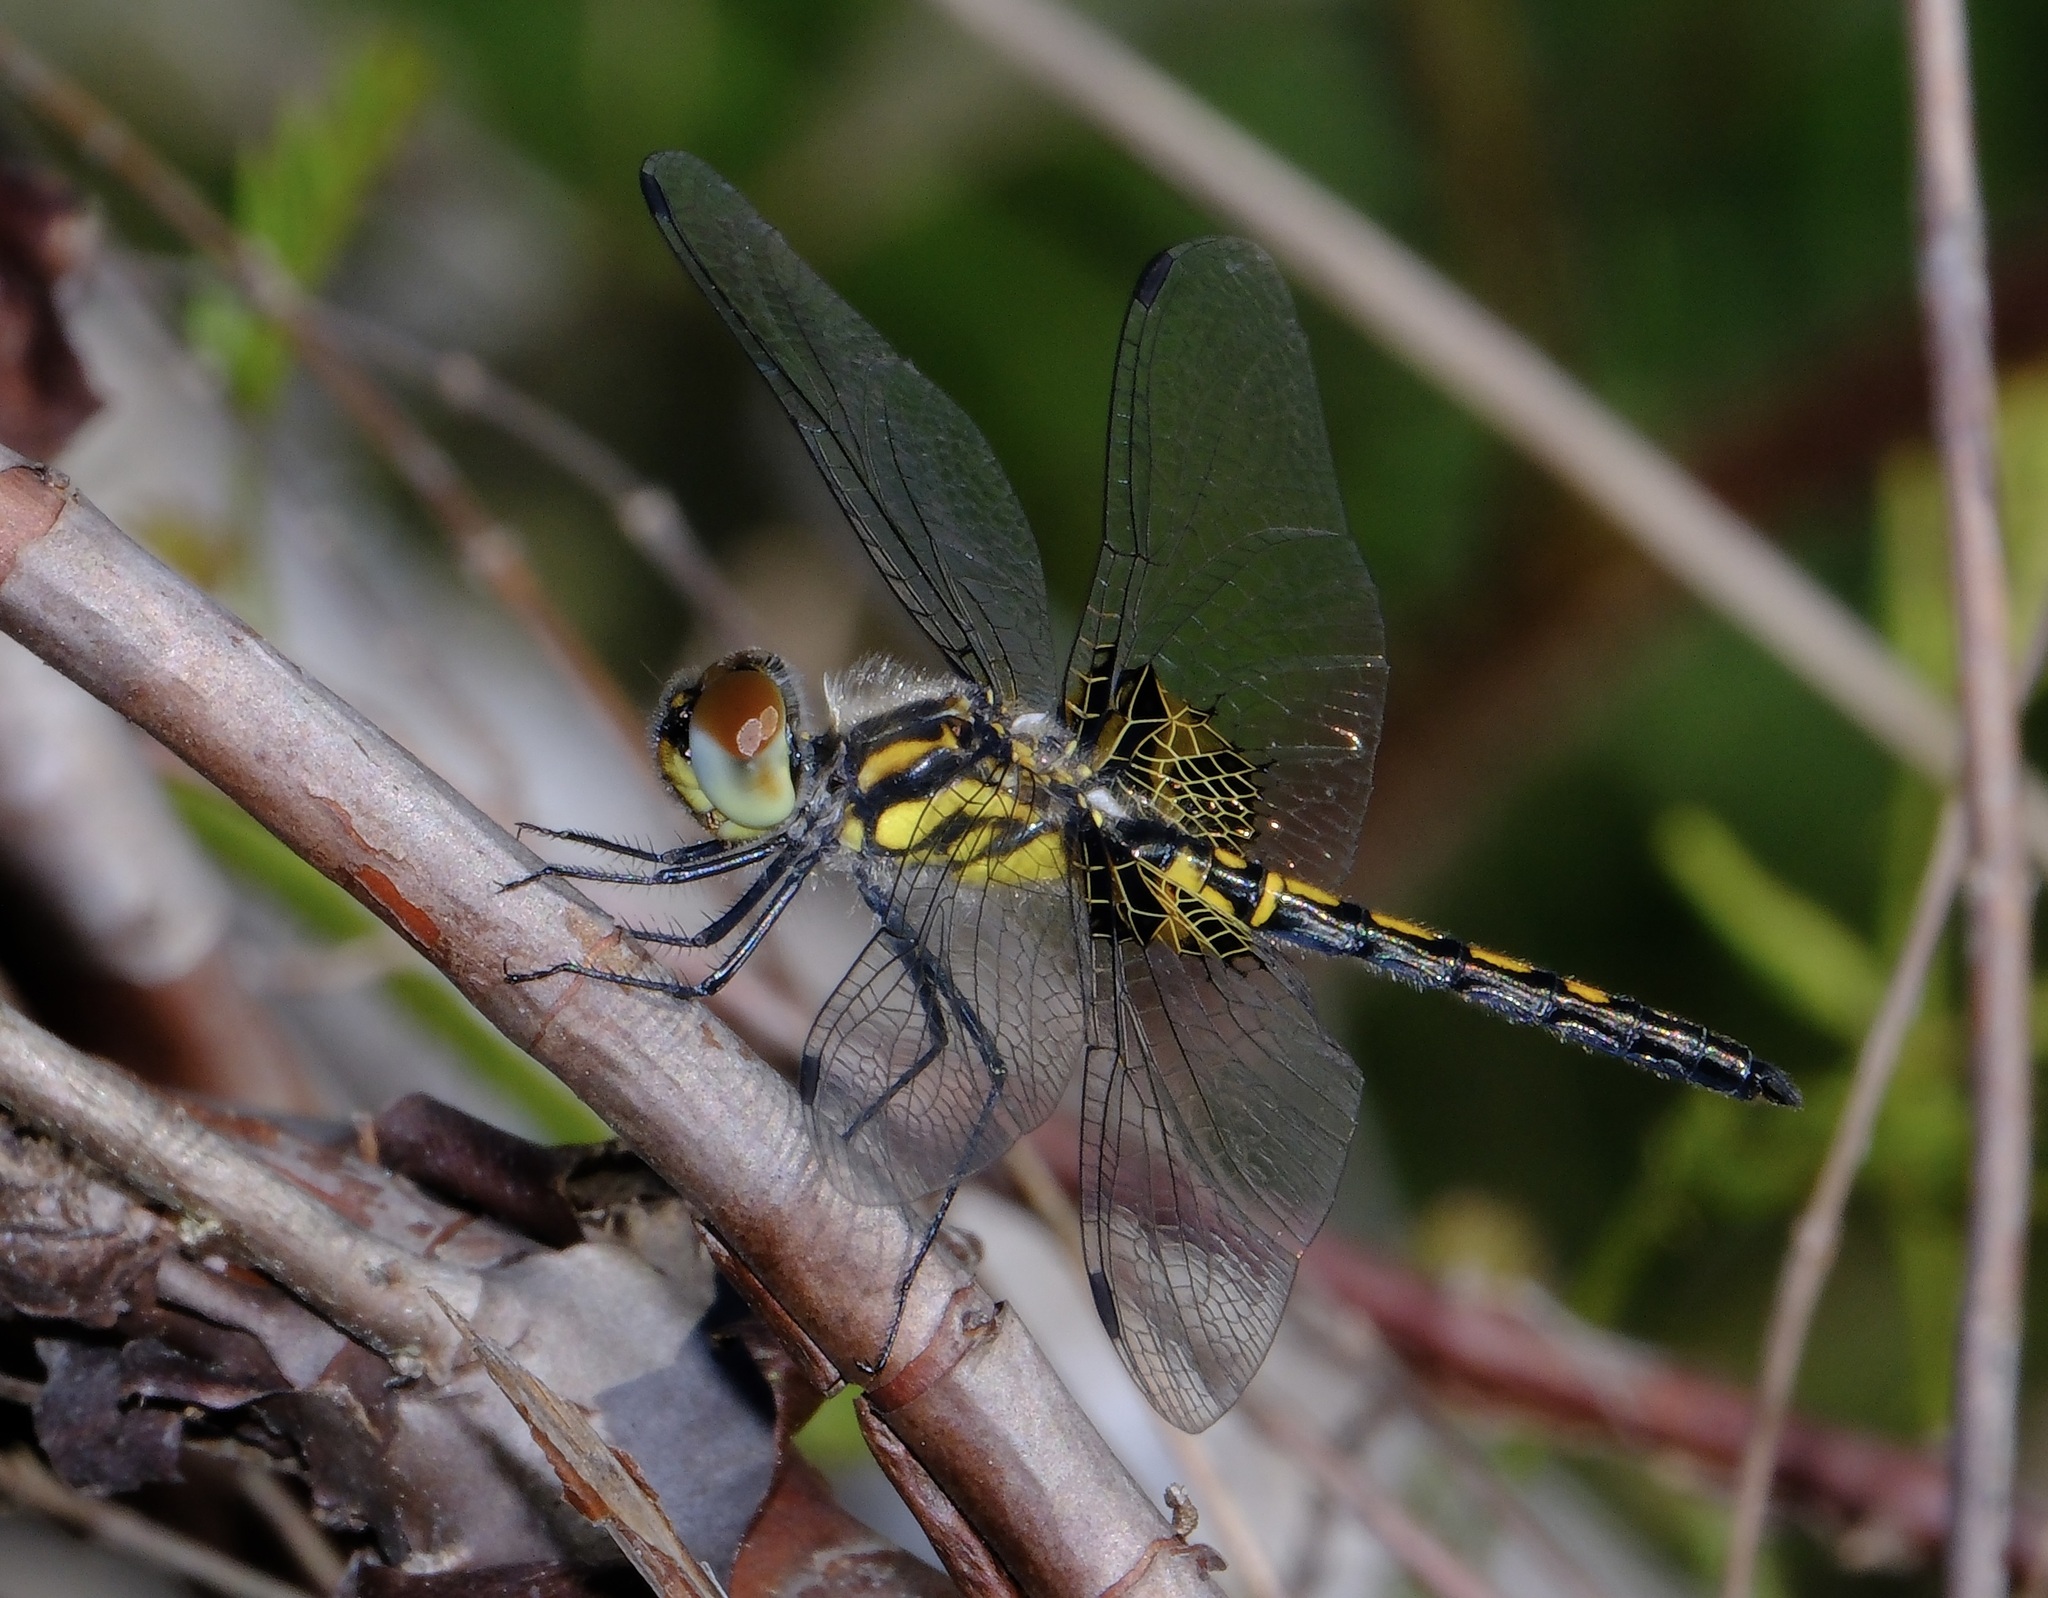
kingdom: Animalia
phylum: Arthropoda
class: Insecta
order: Odonata
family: Libellulidae
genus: Celithemis
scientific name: Celithemis ornata
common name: Ornate pennant
